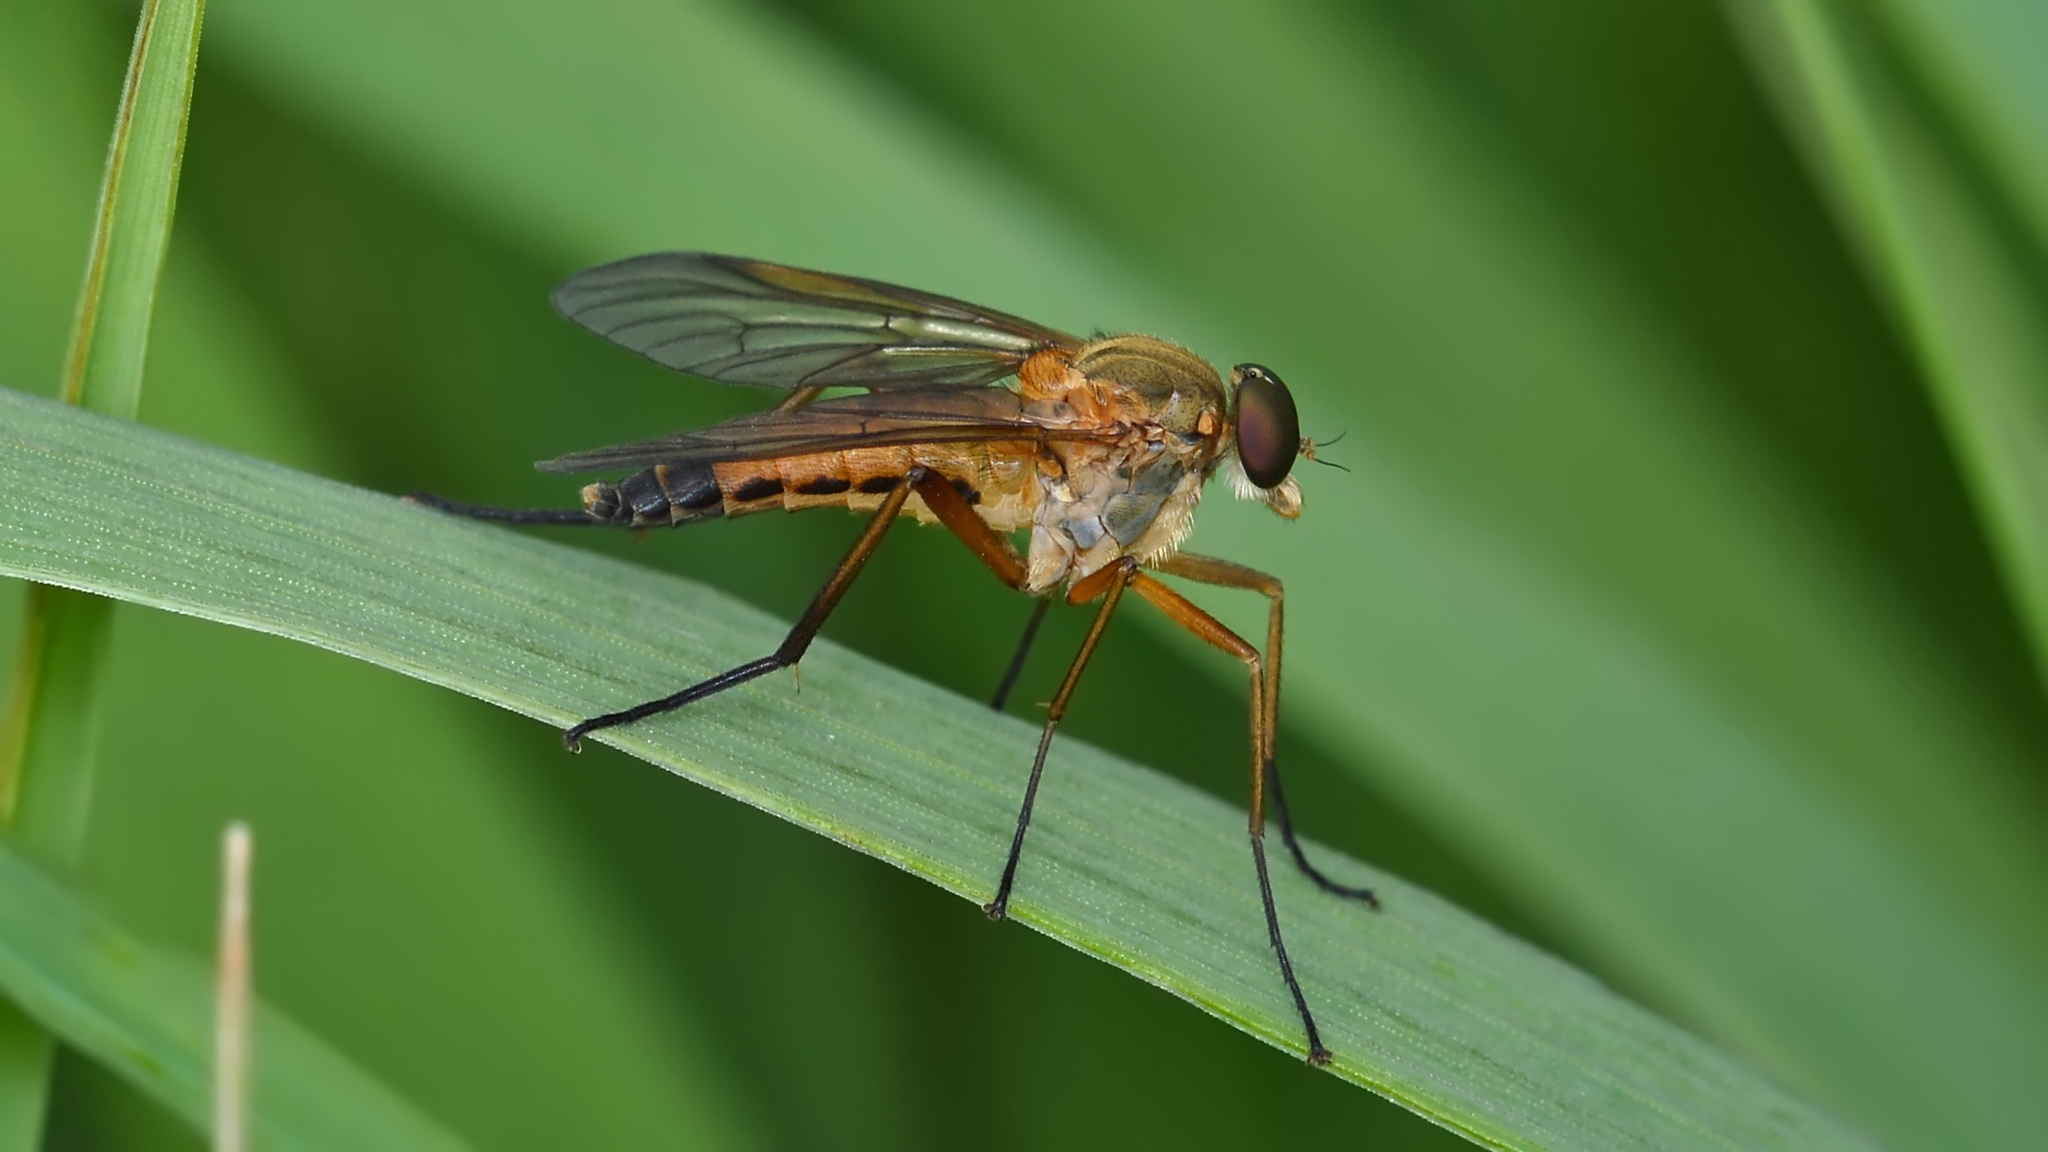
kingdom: Animalia
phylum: Arthropoda
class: Insecta
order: Diptera
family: Rhagionidae
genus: Rhagio
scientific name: Rhagio tringaria
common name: Marsh snipefly
